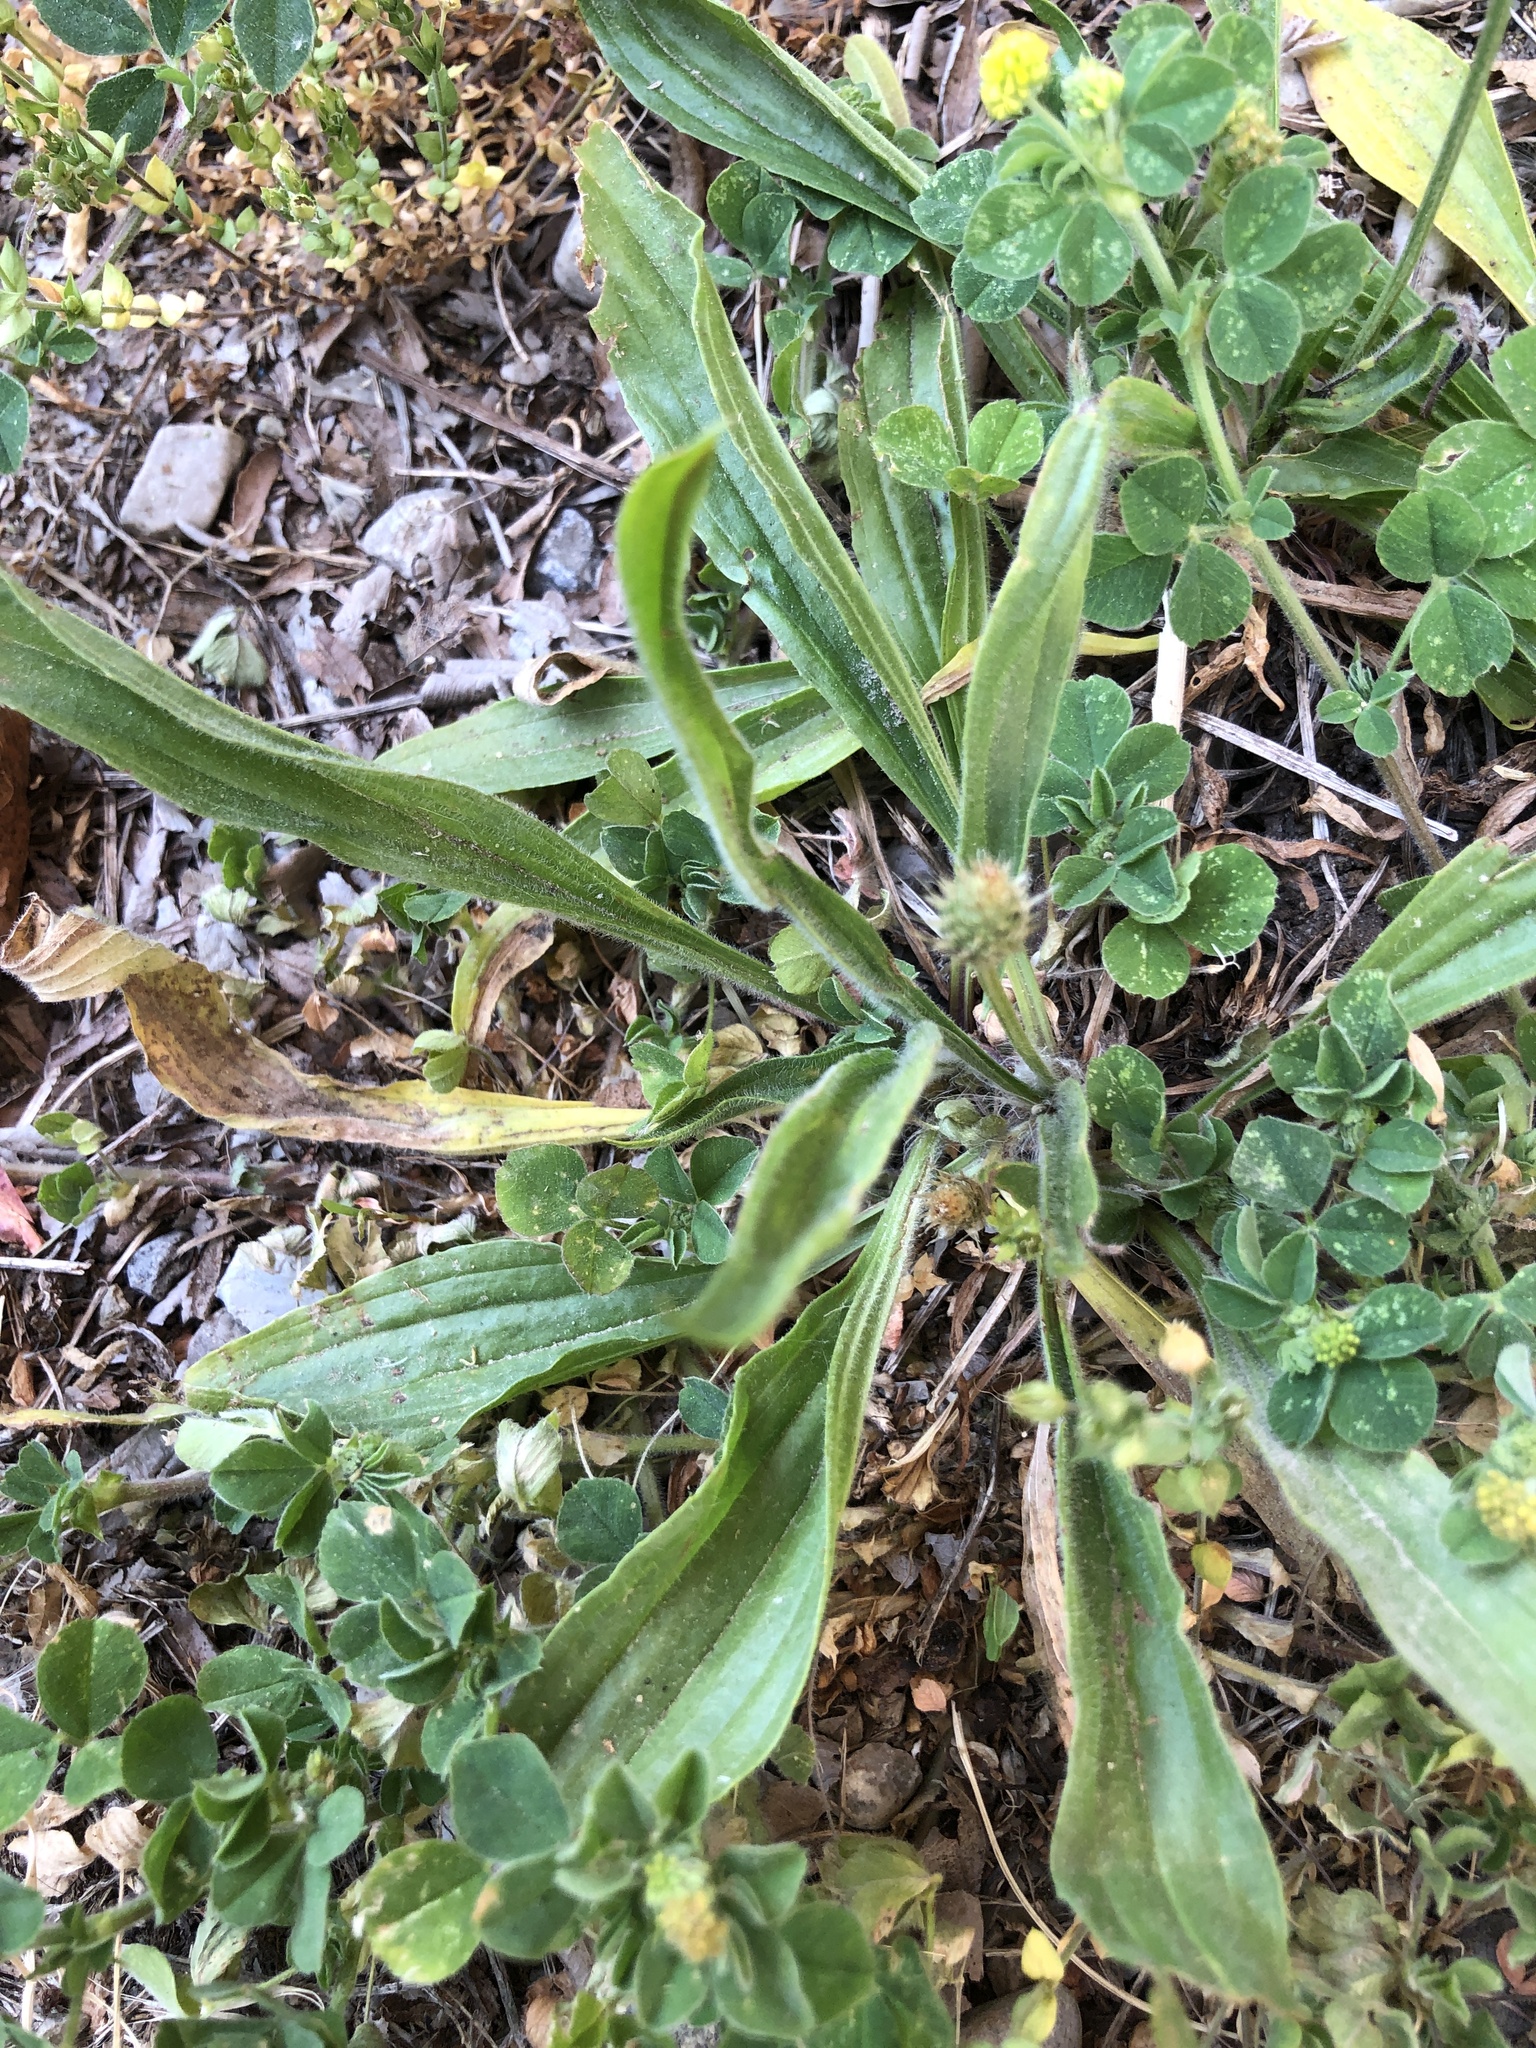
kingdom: Plantae
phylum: Tracheophyta
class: Magnoliopsida
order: Lamiales
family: Plantaginaceae
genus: Plantago
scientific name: Plantago lanceolata
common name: Ribwort plantain
